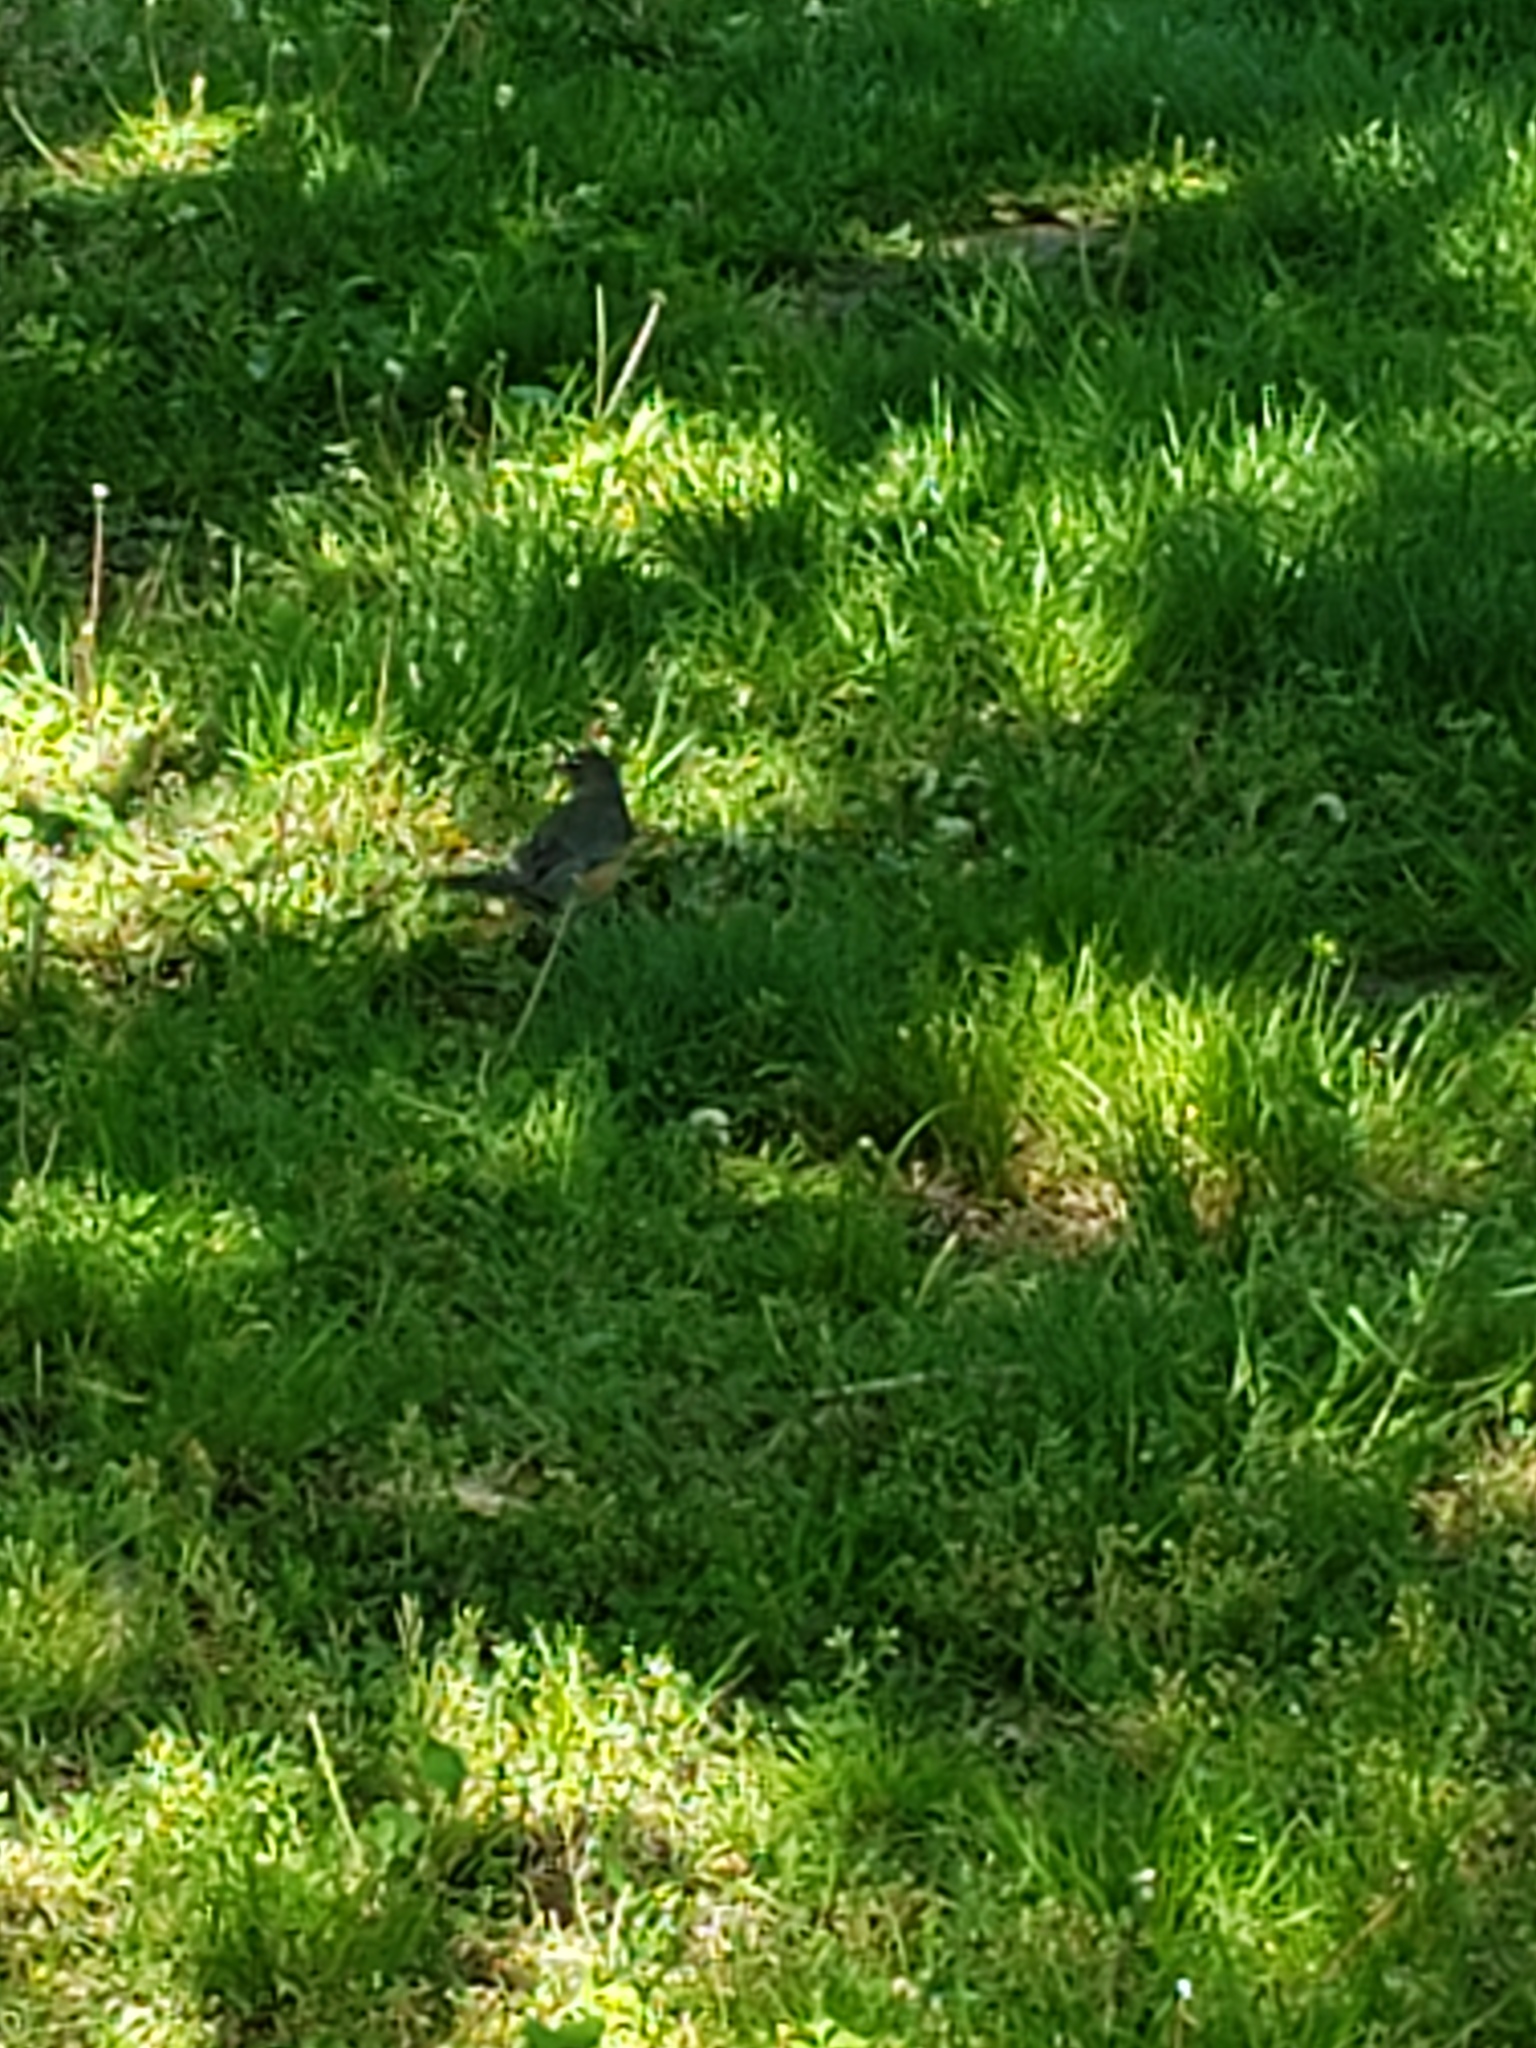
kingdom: Animalia
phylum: Chordata
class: Aves
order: Passeriformes
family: Turdidae
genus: Turdus
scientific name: Turdus migratorius
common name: American robin
